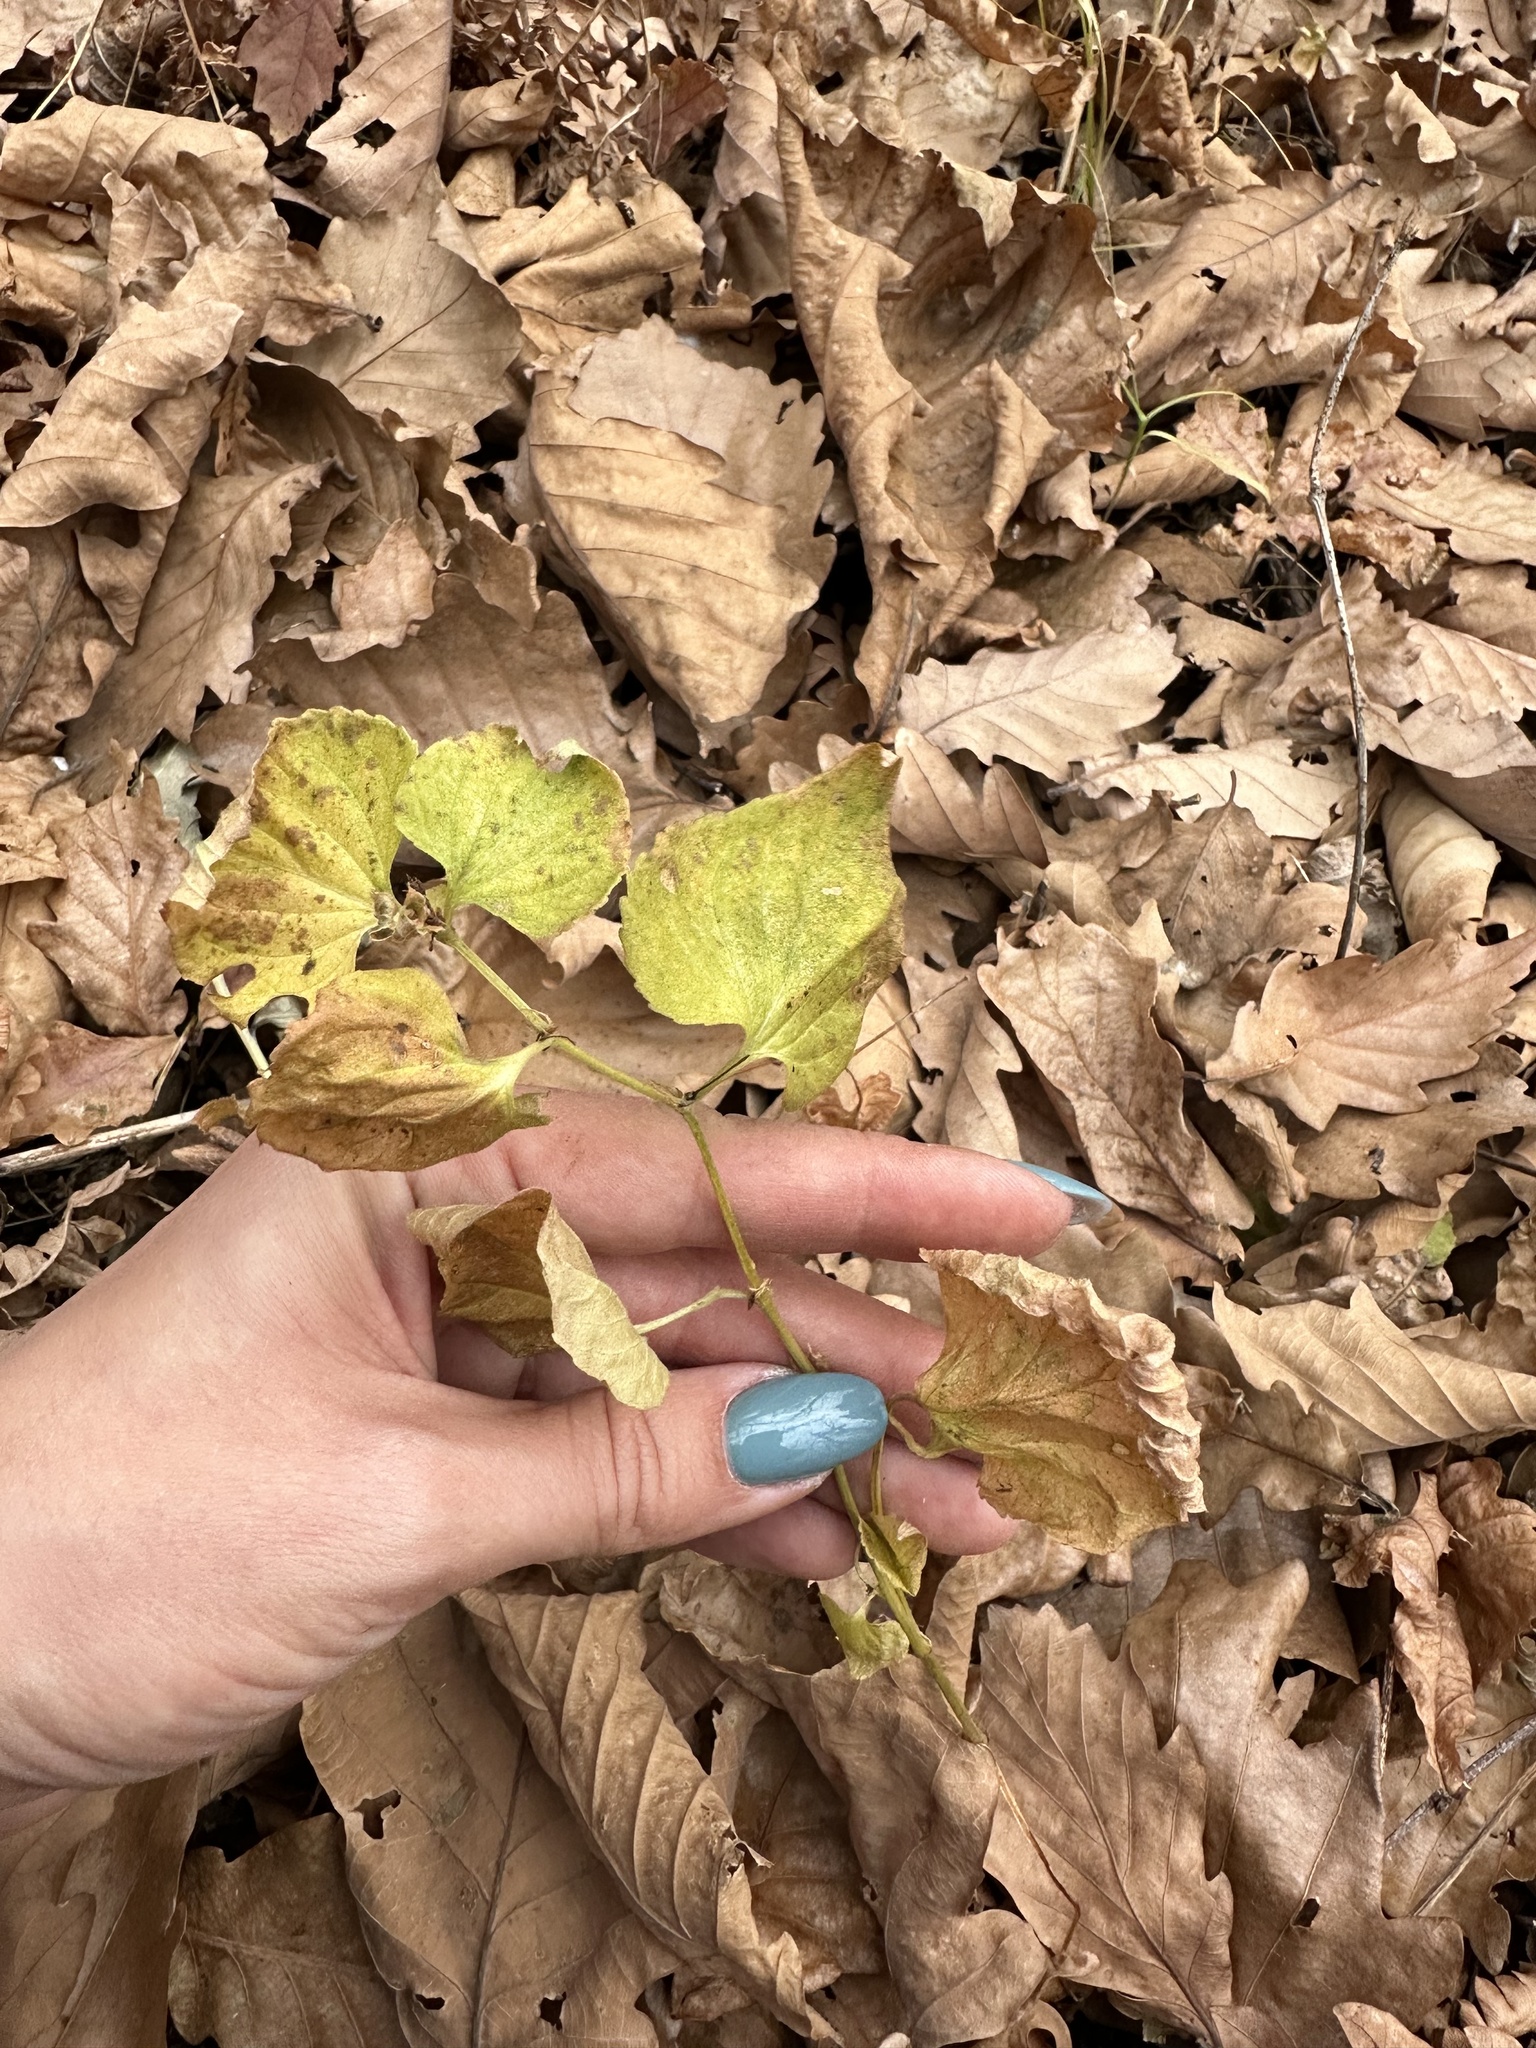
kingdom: Plantae
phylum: Tracheophyta
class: Magnoliopsida
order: Malpighiales
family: Violaceae
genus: Viola
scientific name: Viola acuminata
